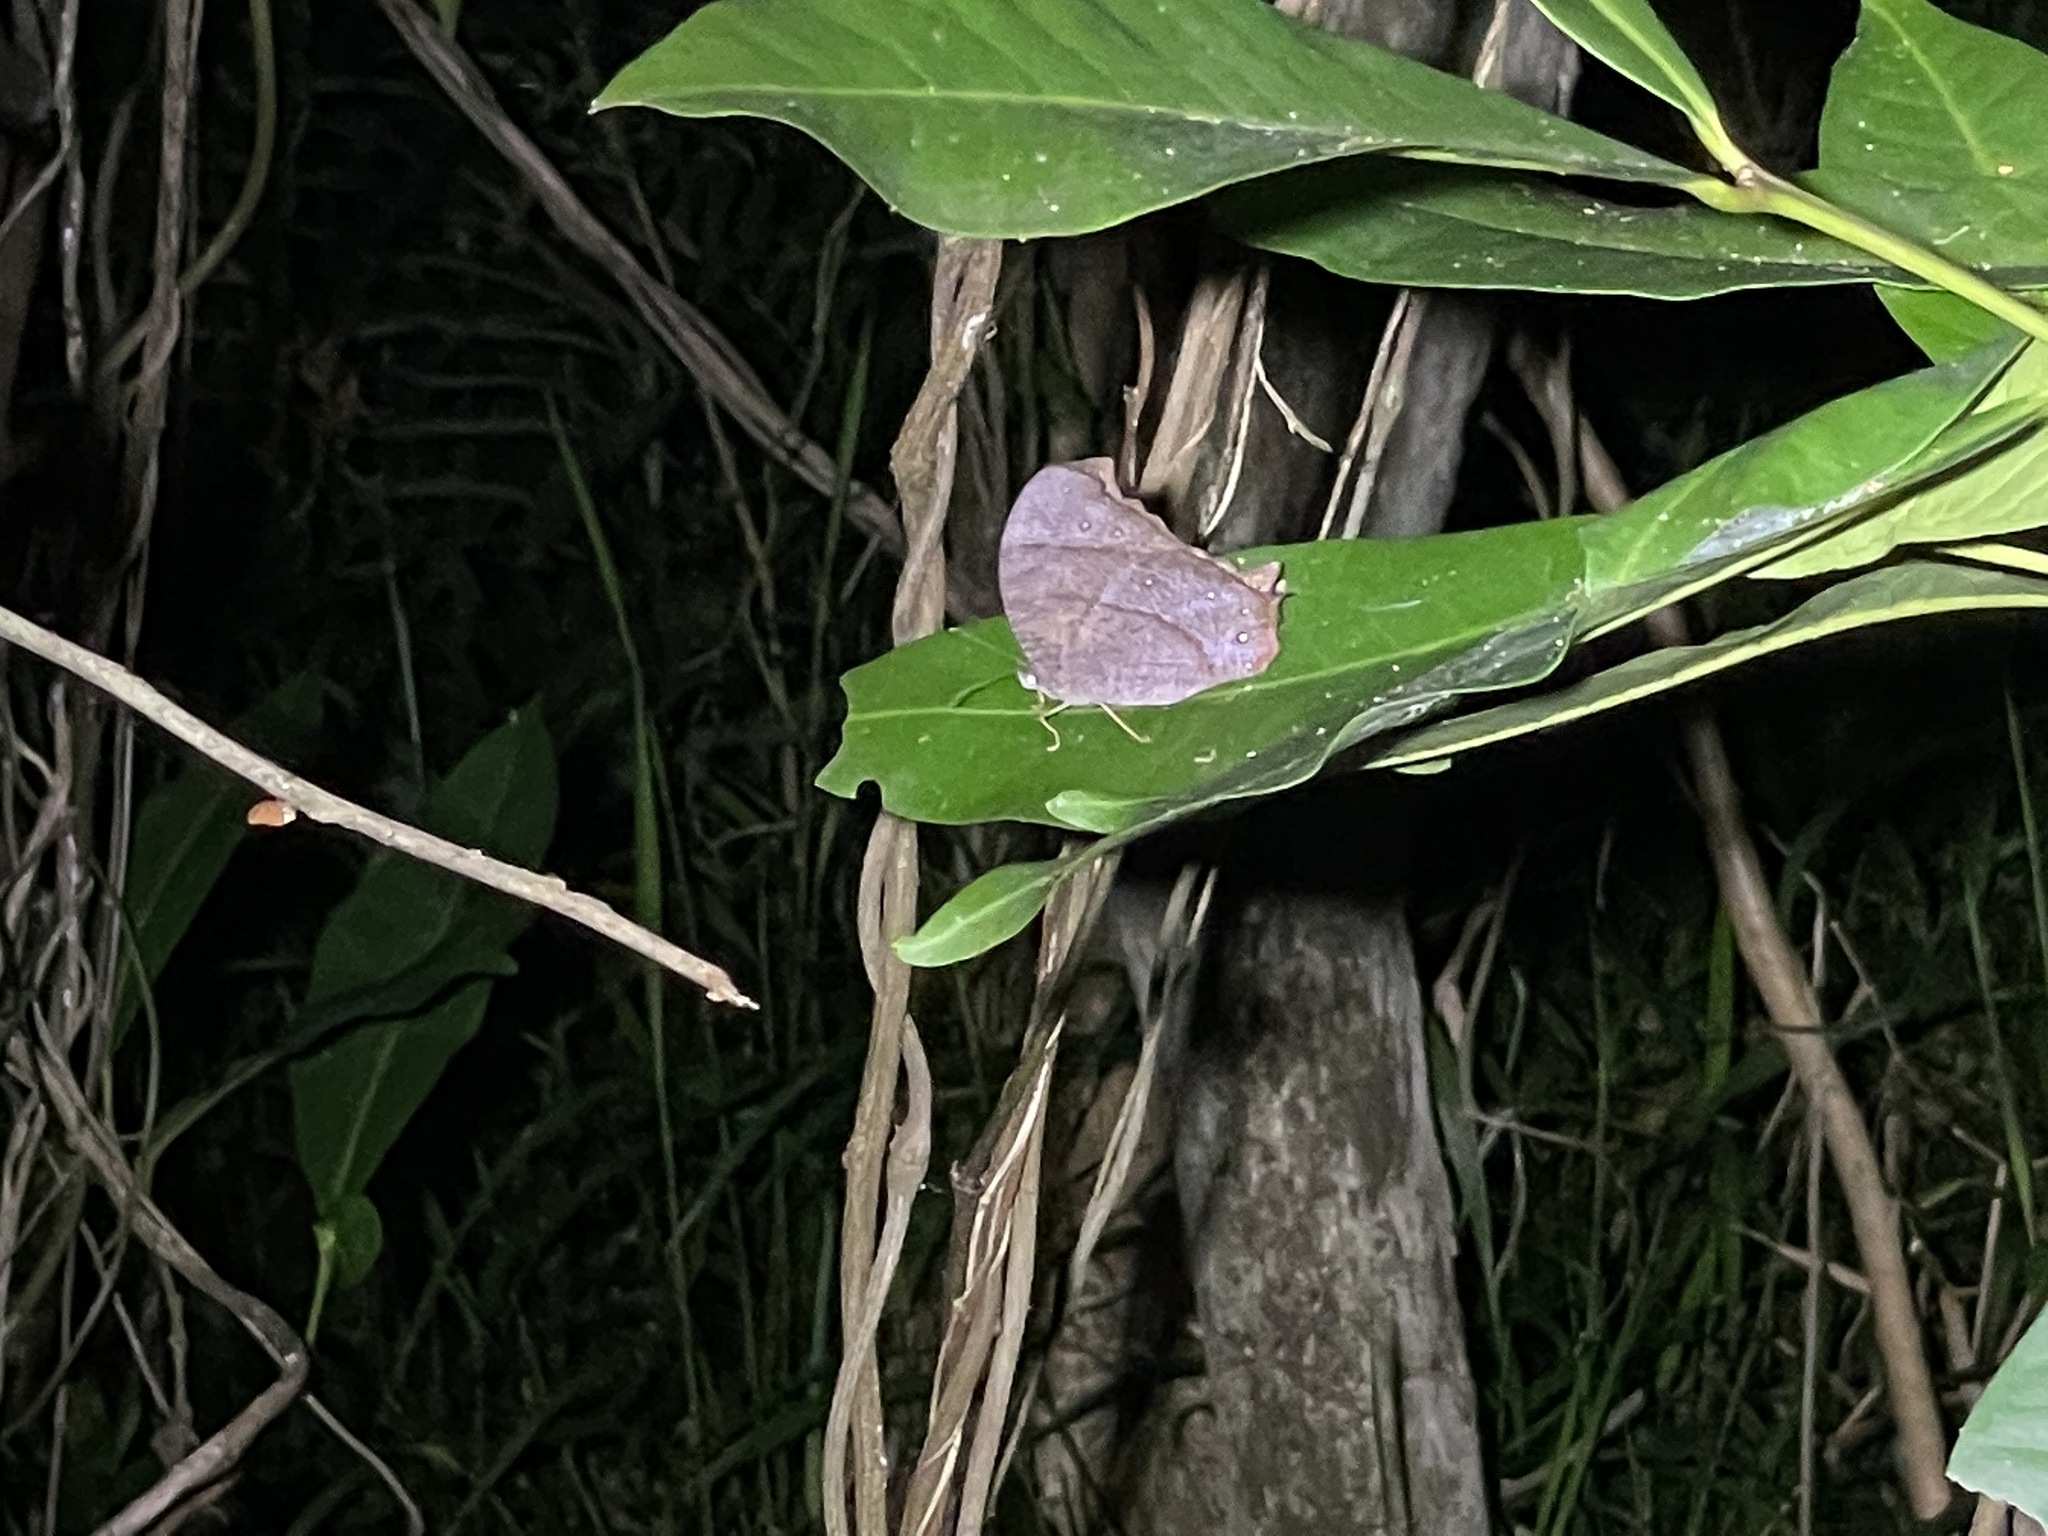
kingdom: Animalia
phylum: Arthropoda
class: Insecta
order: Lepidoptera
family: Nymphalidae
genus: Melanitis
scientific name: Melanitis phedima
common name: Dark evening brown
